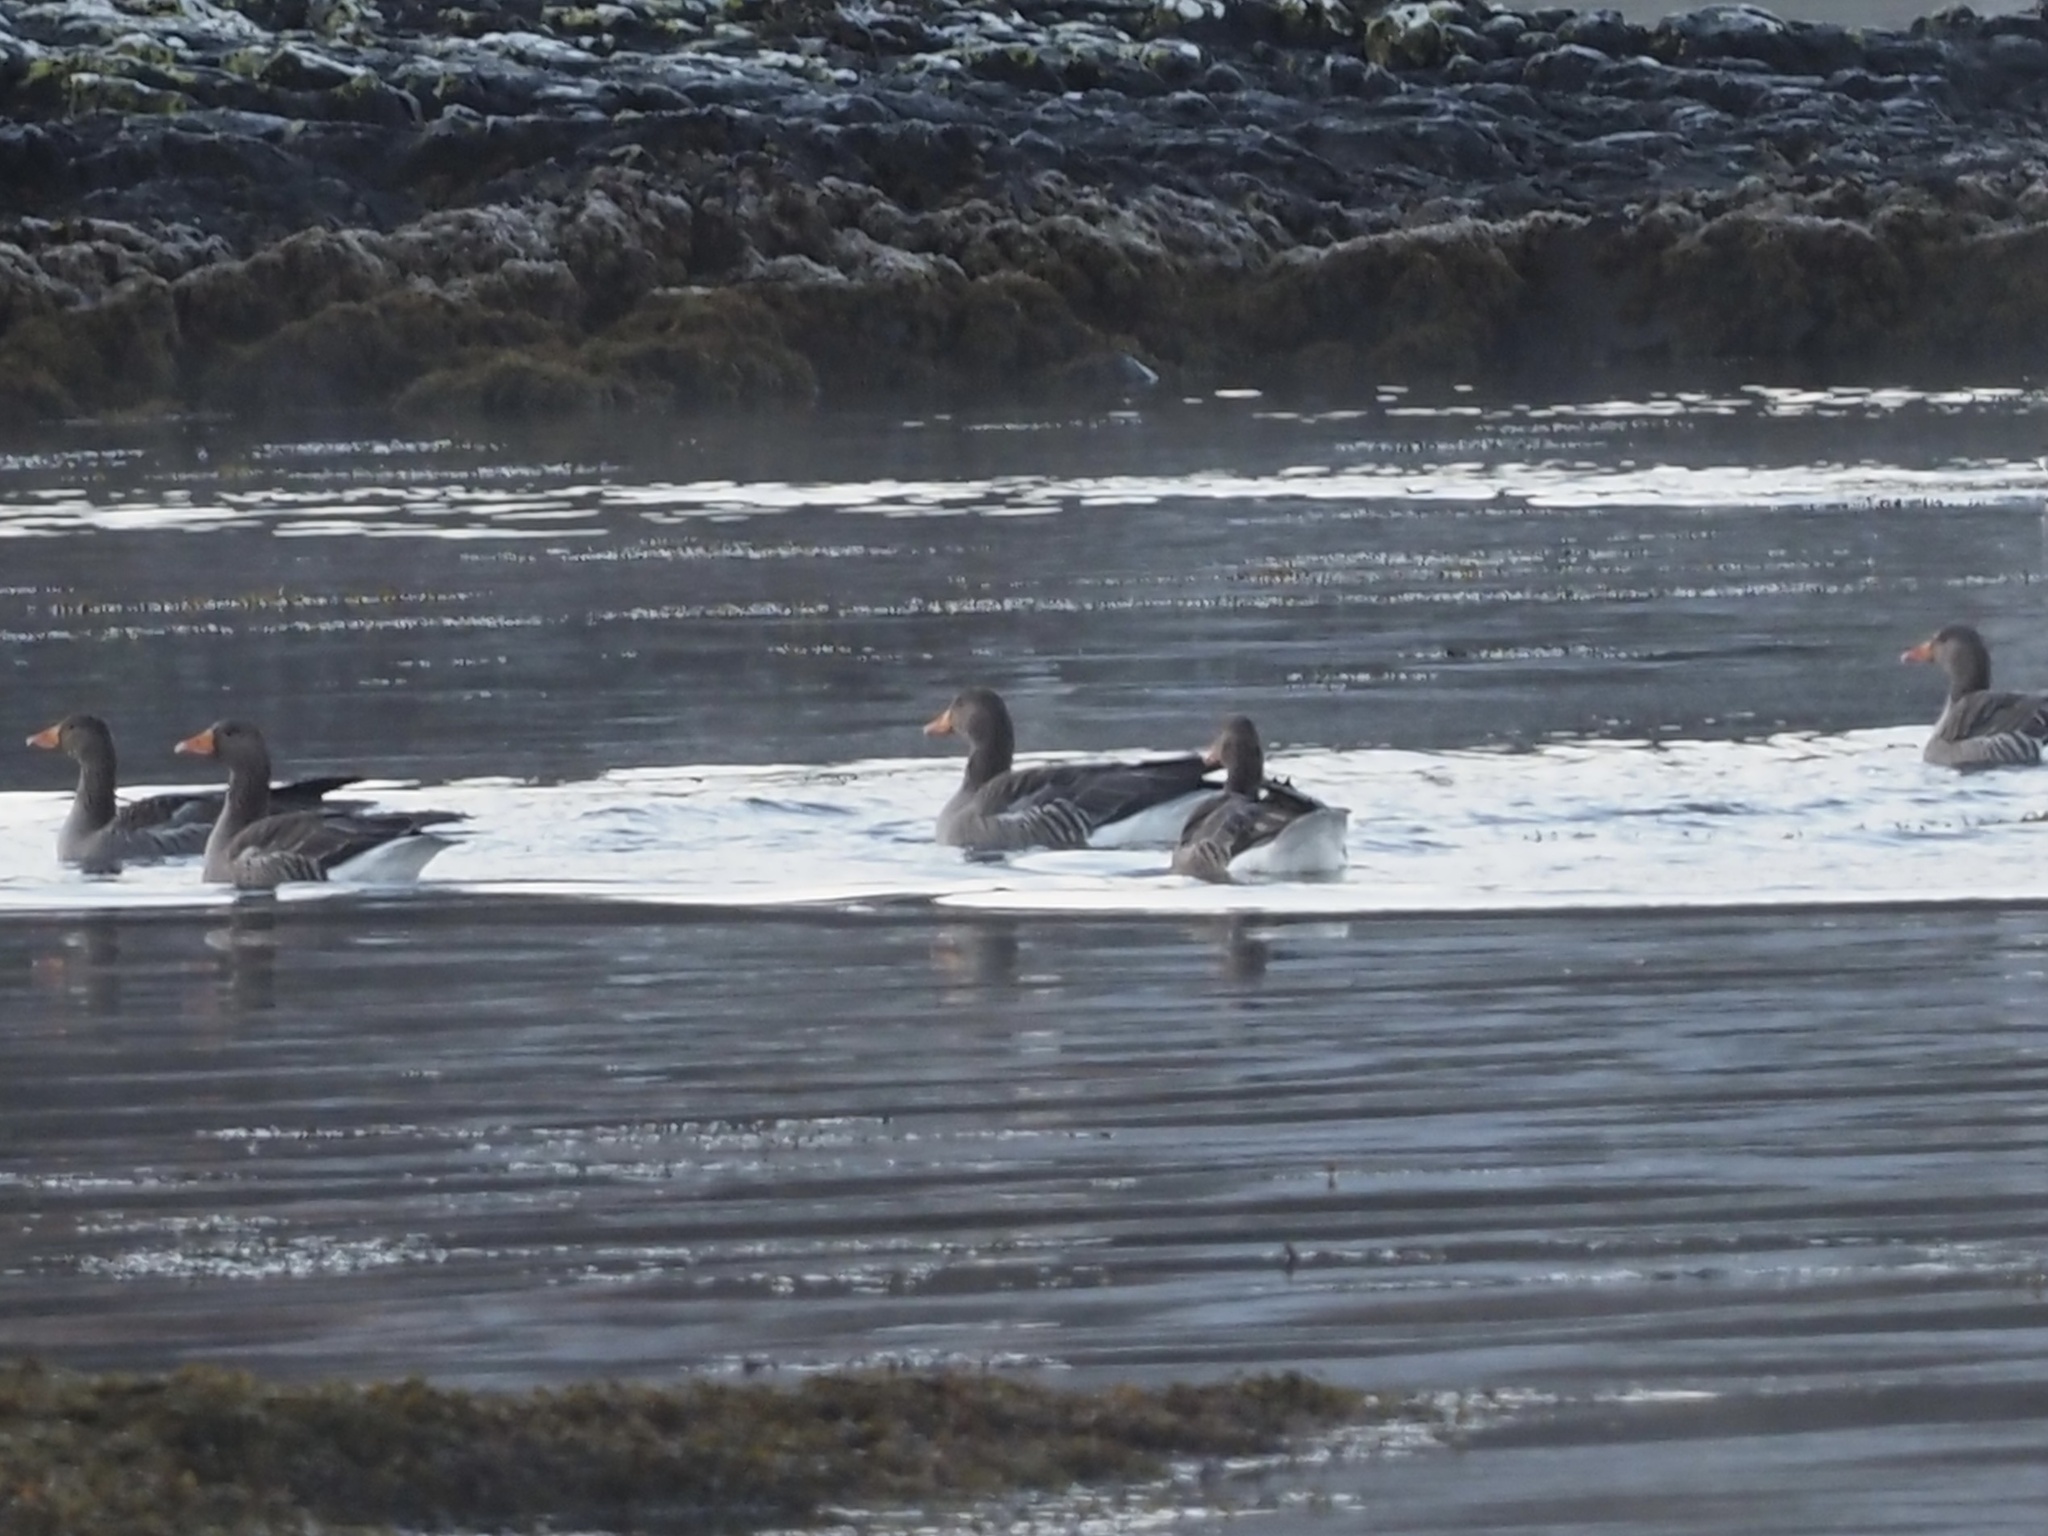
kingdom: Animalia
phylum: Chordata
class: Aves
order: Anseriformes
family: Anatidae
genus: Anser
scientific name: Anser anser
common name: Greylag goose
